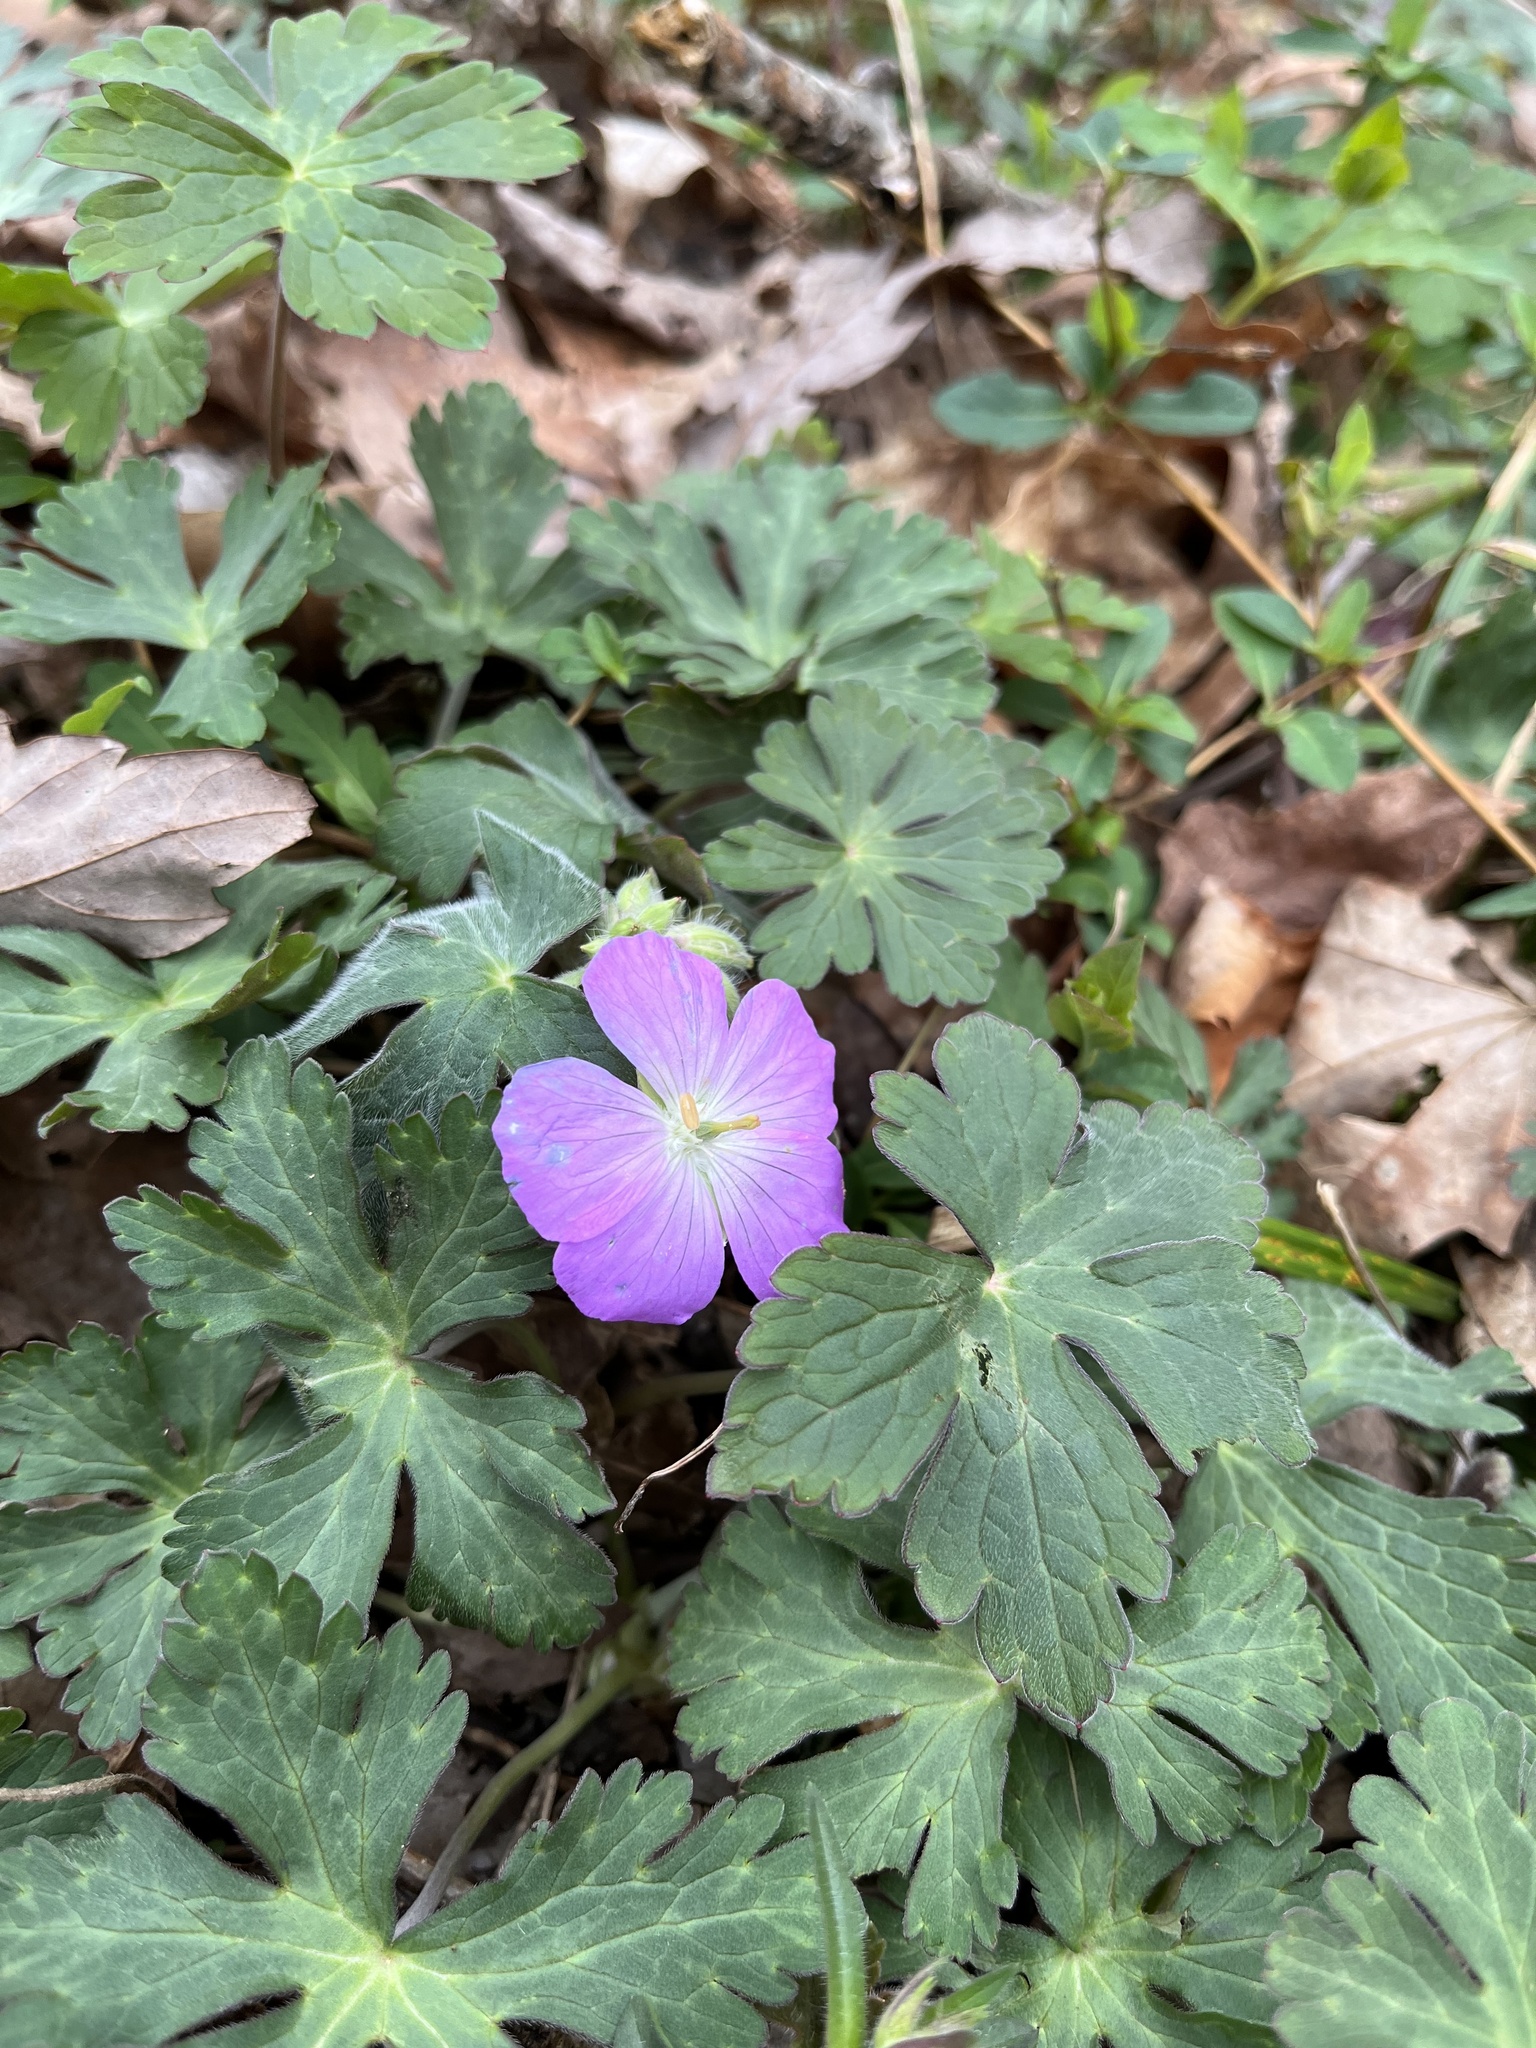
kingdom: Plantae
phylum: Tracheophyta
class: Magnoliopsida
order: Geraniales
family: Geraniaceae
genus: Geranium
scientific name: Geranium maculatum
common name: Spotted geranium
